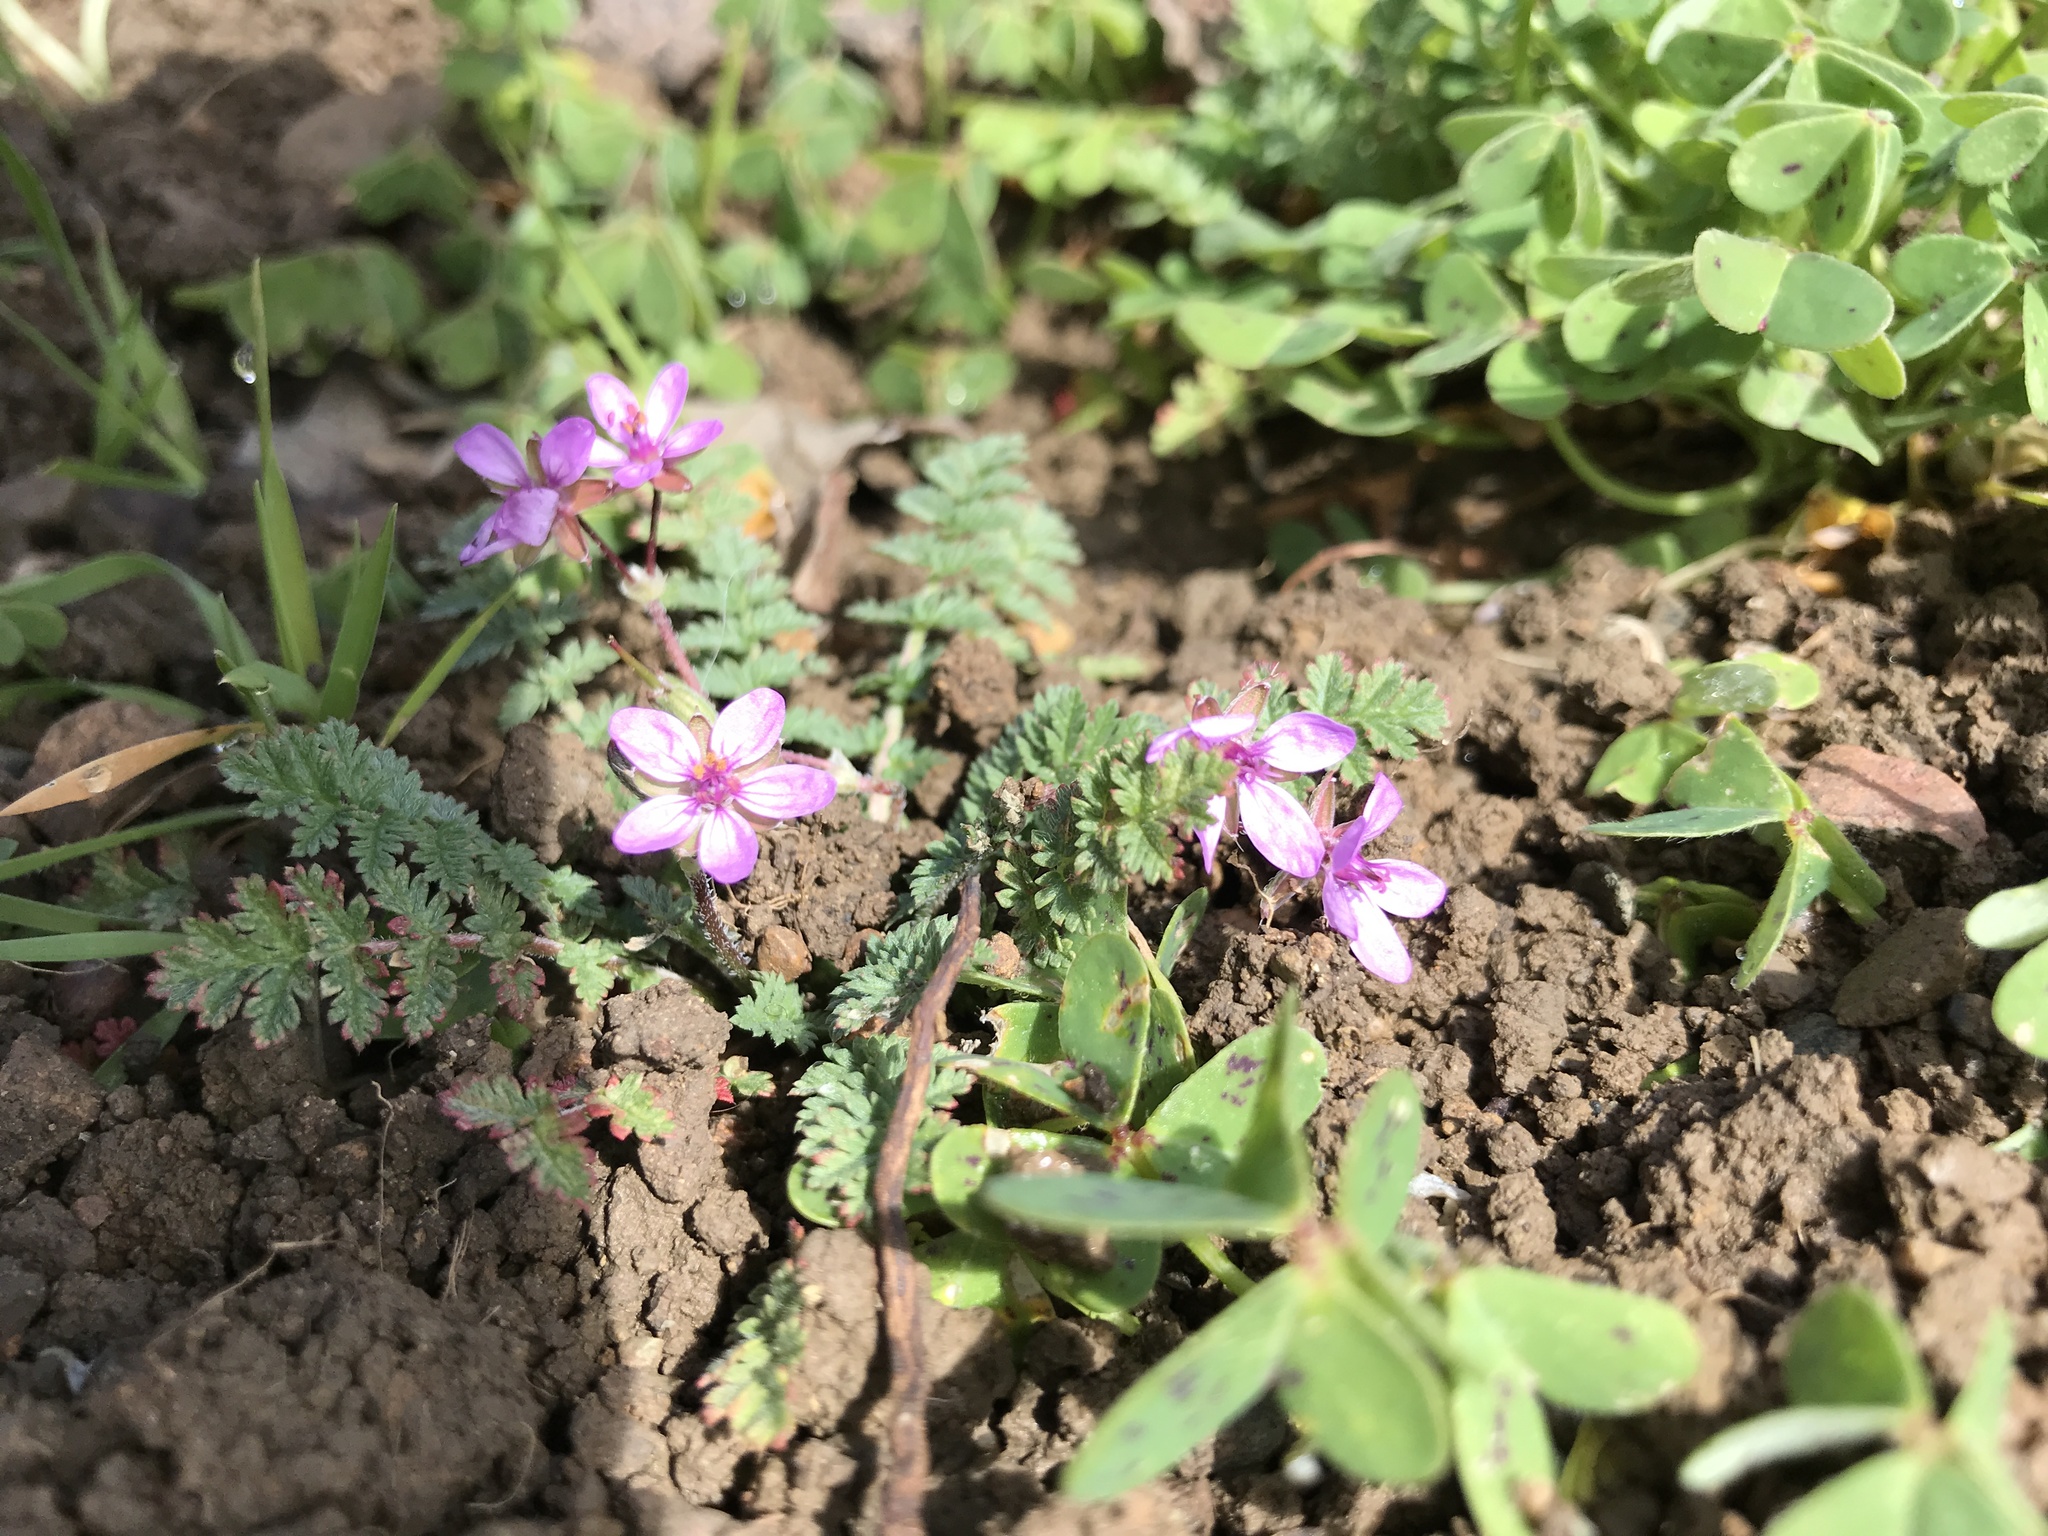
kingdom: Plantae
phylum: Tracheophyta
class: Magnoliopsida
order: Geraniales
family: Geraniaceae
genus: Erodium
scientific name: Erodium cicutarium
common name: Common stork's-bill
